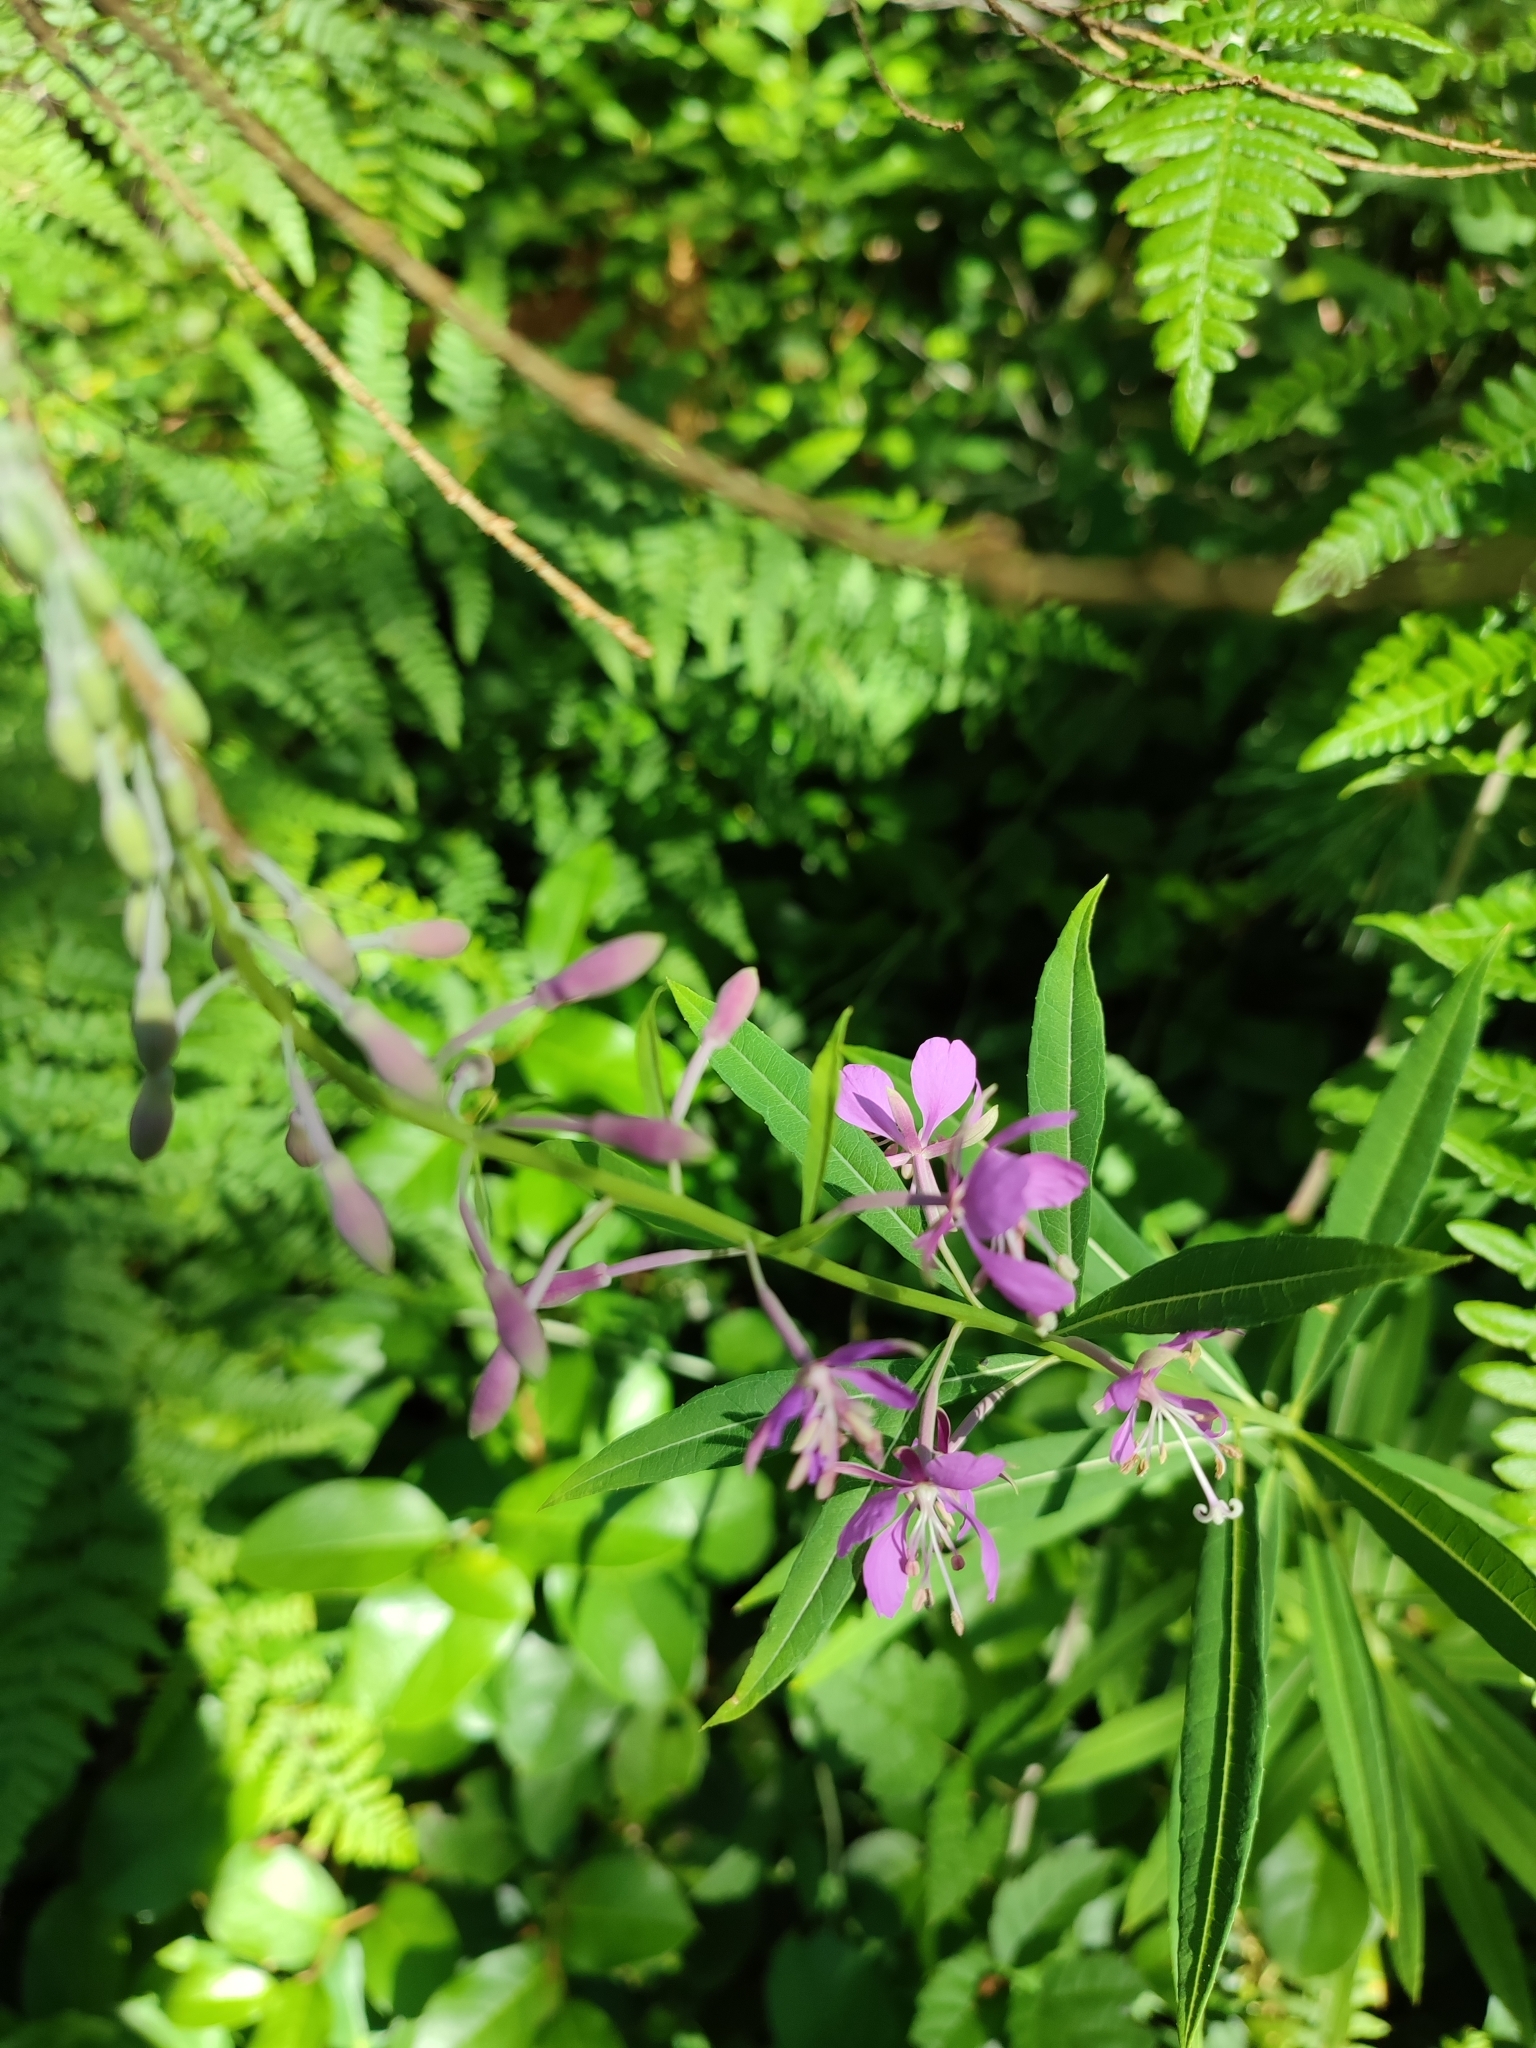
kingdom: Plantae
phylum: Tracheophyta
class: Magnoliopsida
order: Myrtales
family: Onagraceae
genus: Chamaenerion
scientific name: Chamaenerion angustifolium
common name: Fireweed
